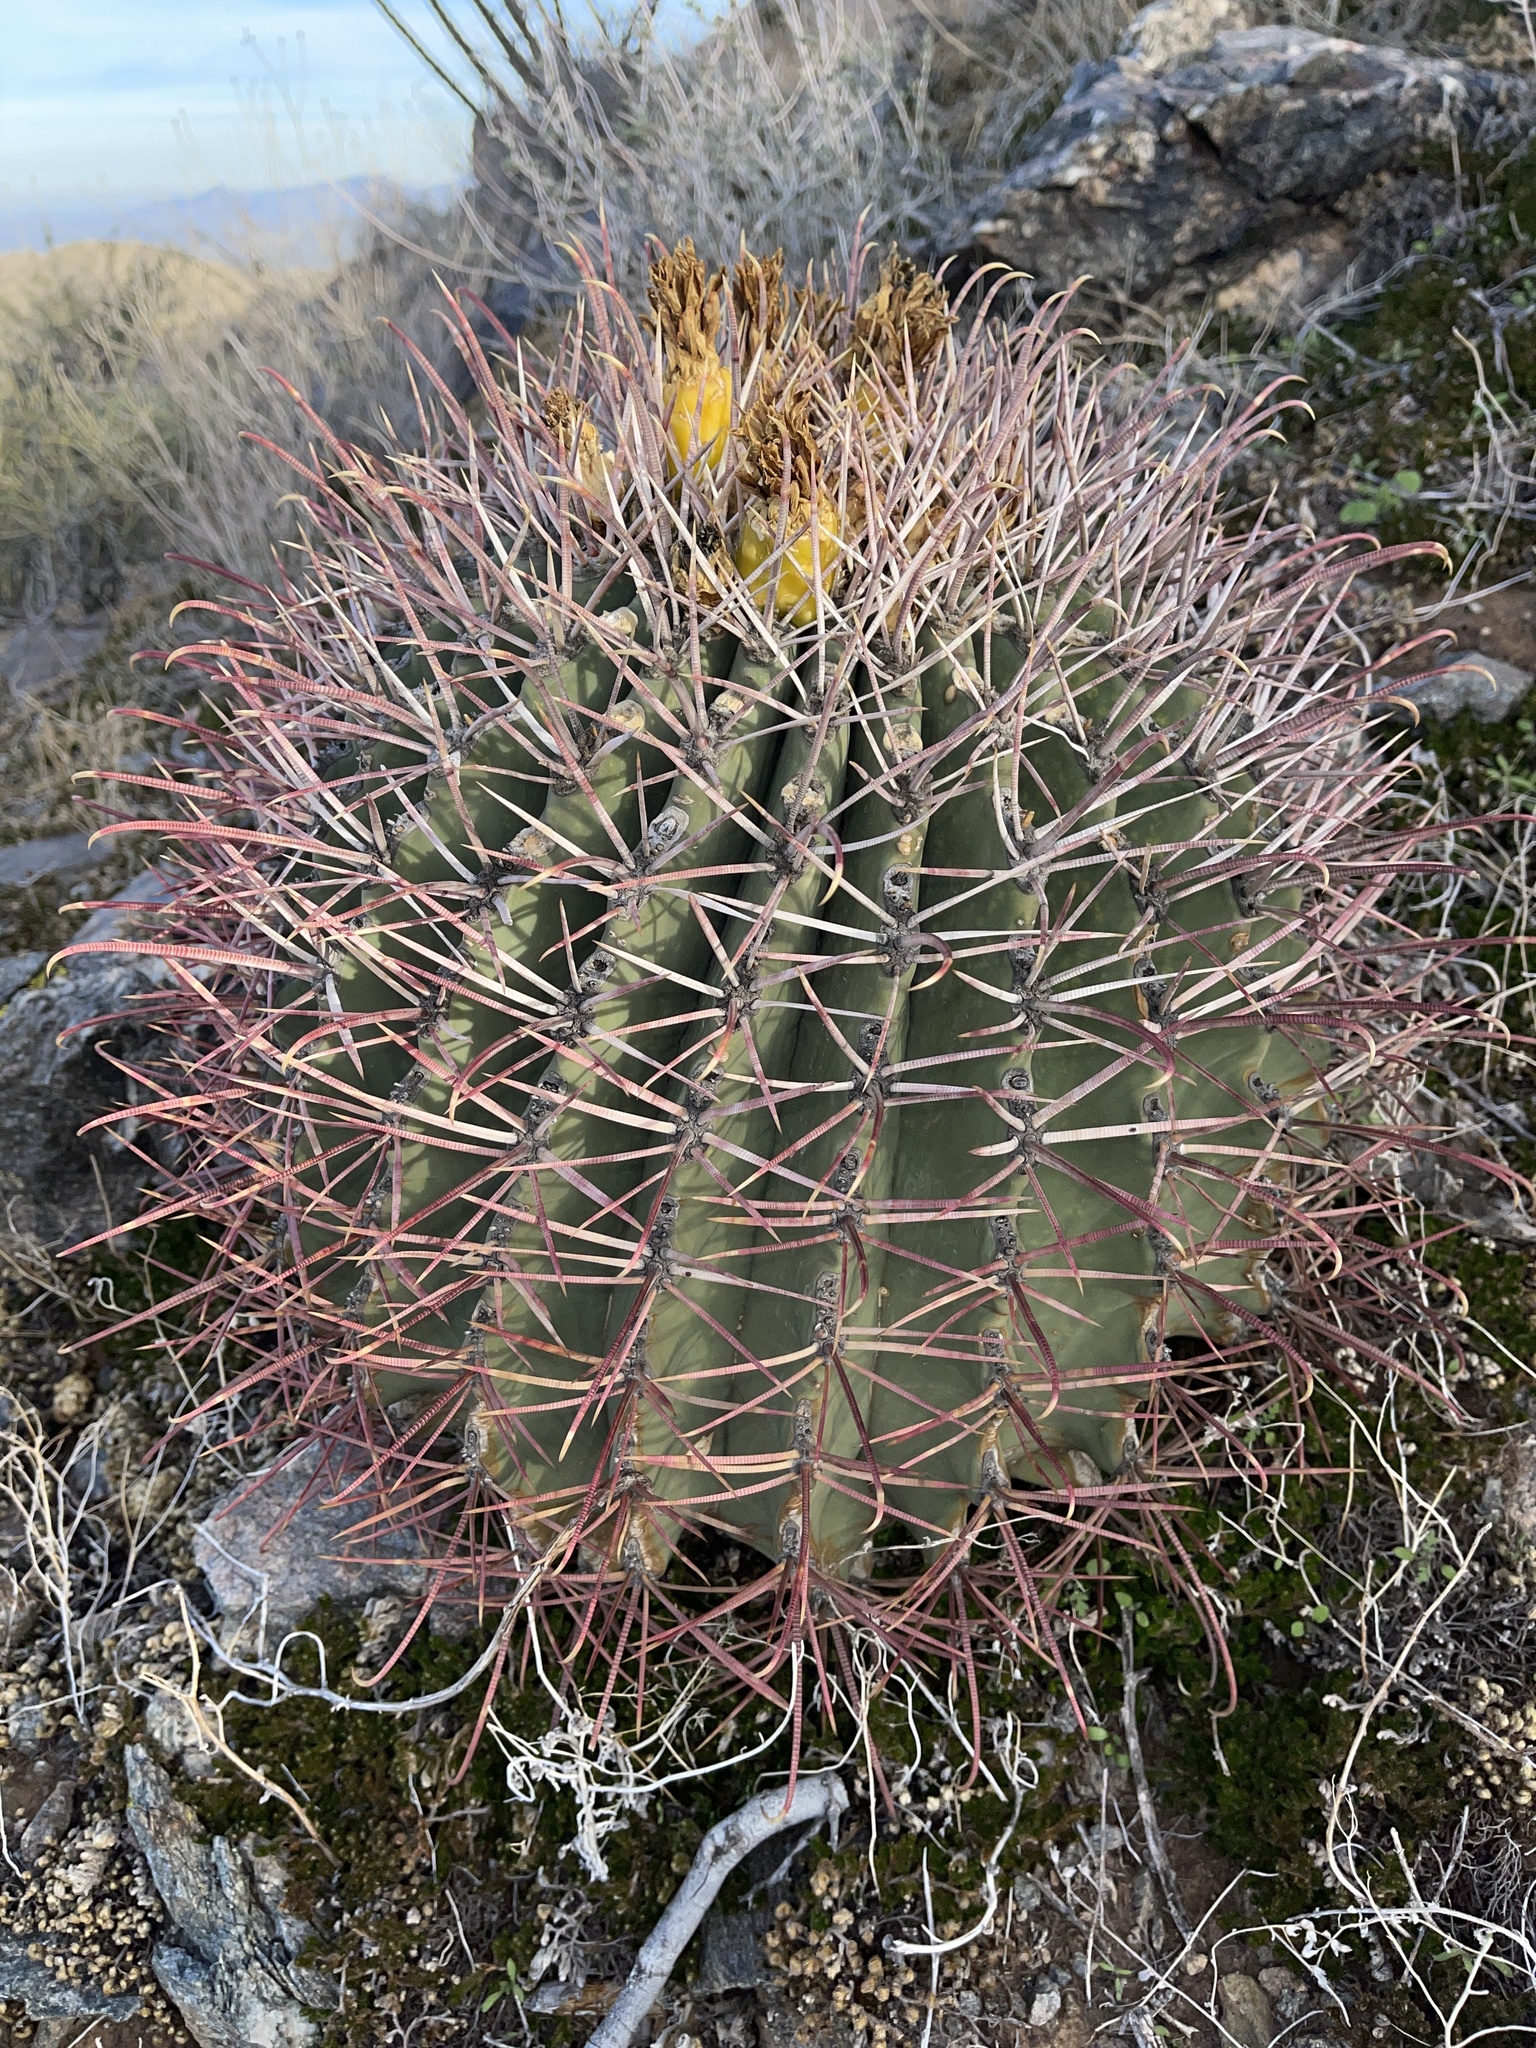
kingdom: Plantae
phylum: Tracheophyta
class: Magnoliopsida
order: Caryophyllales
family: Cactaceae
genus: Ferocactus
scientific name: Ferocactus emoryi
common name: Emory's barrel cactus
